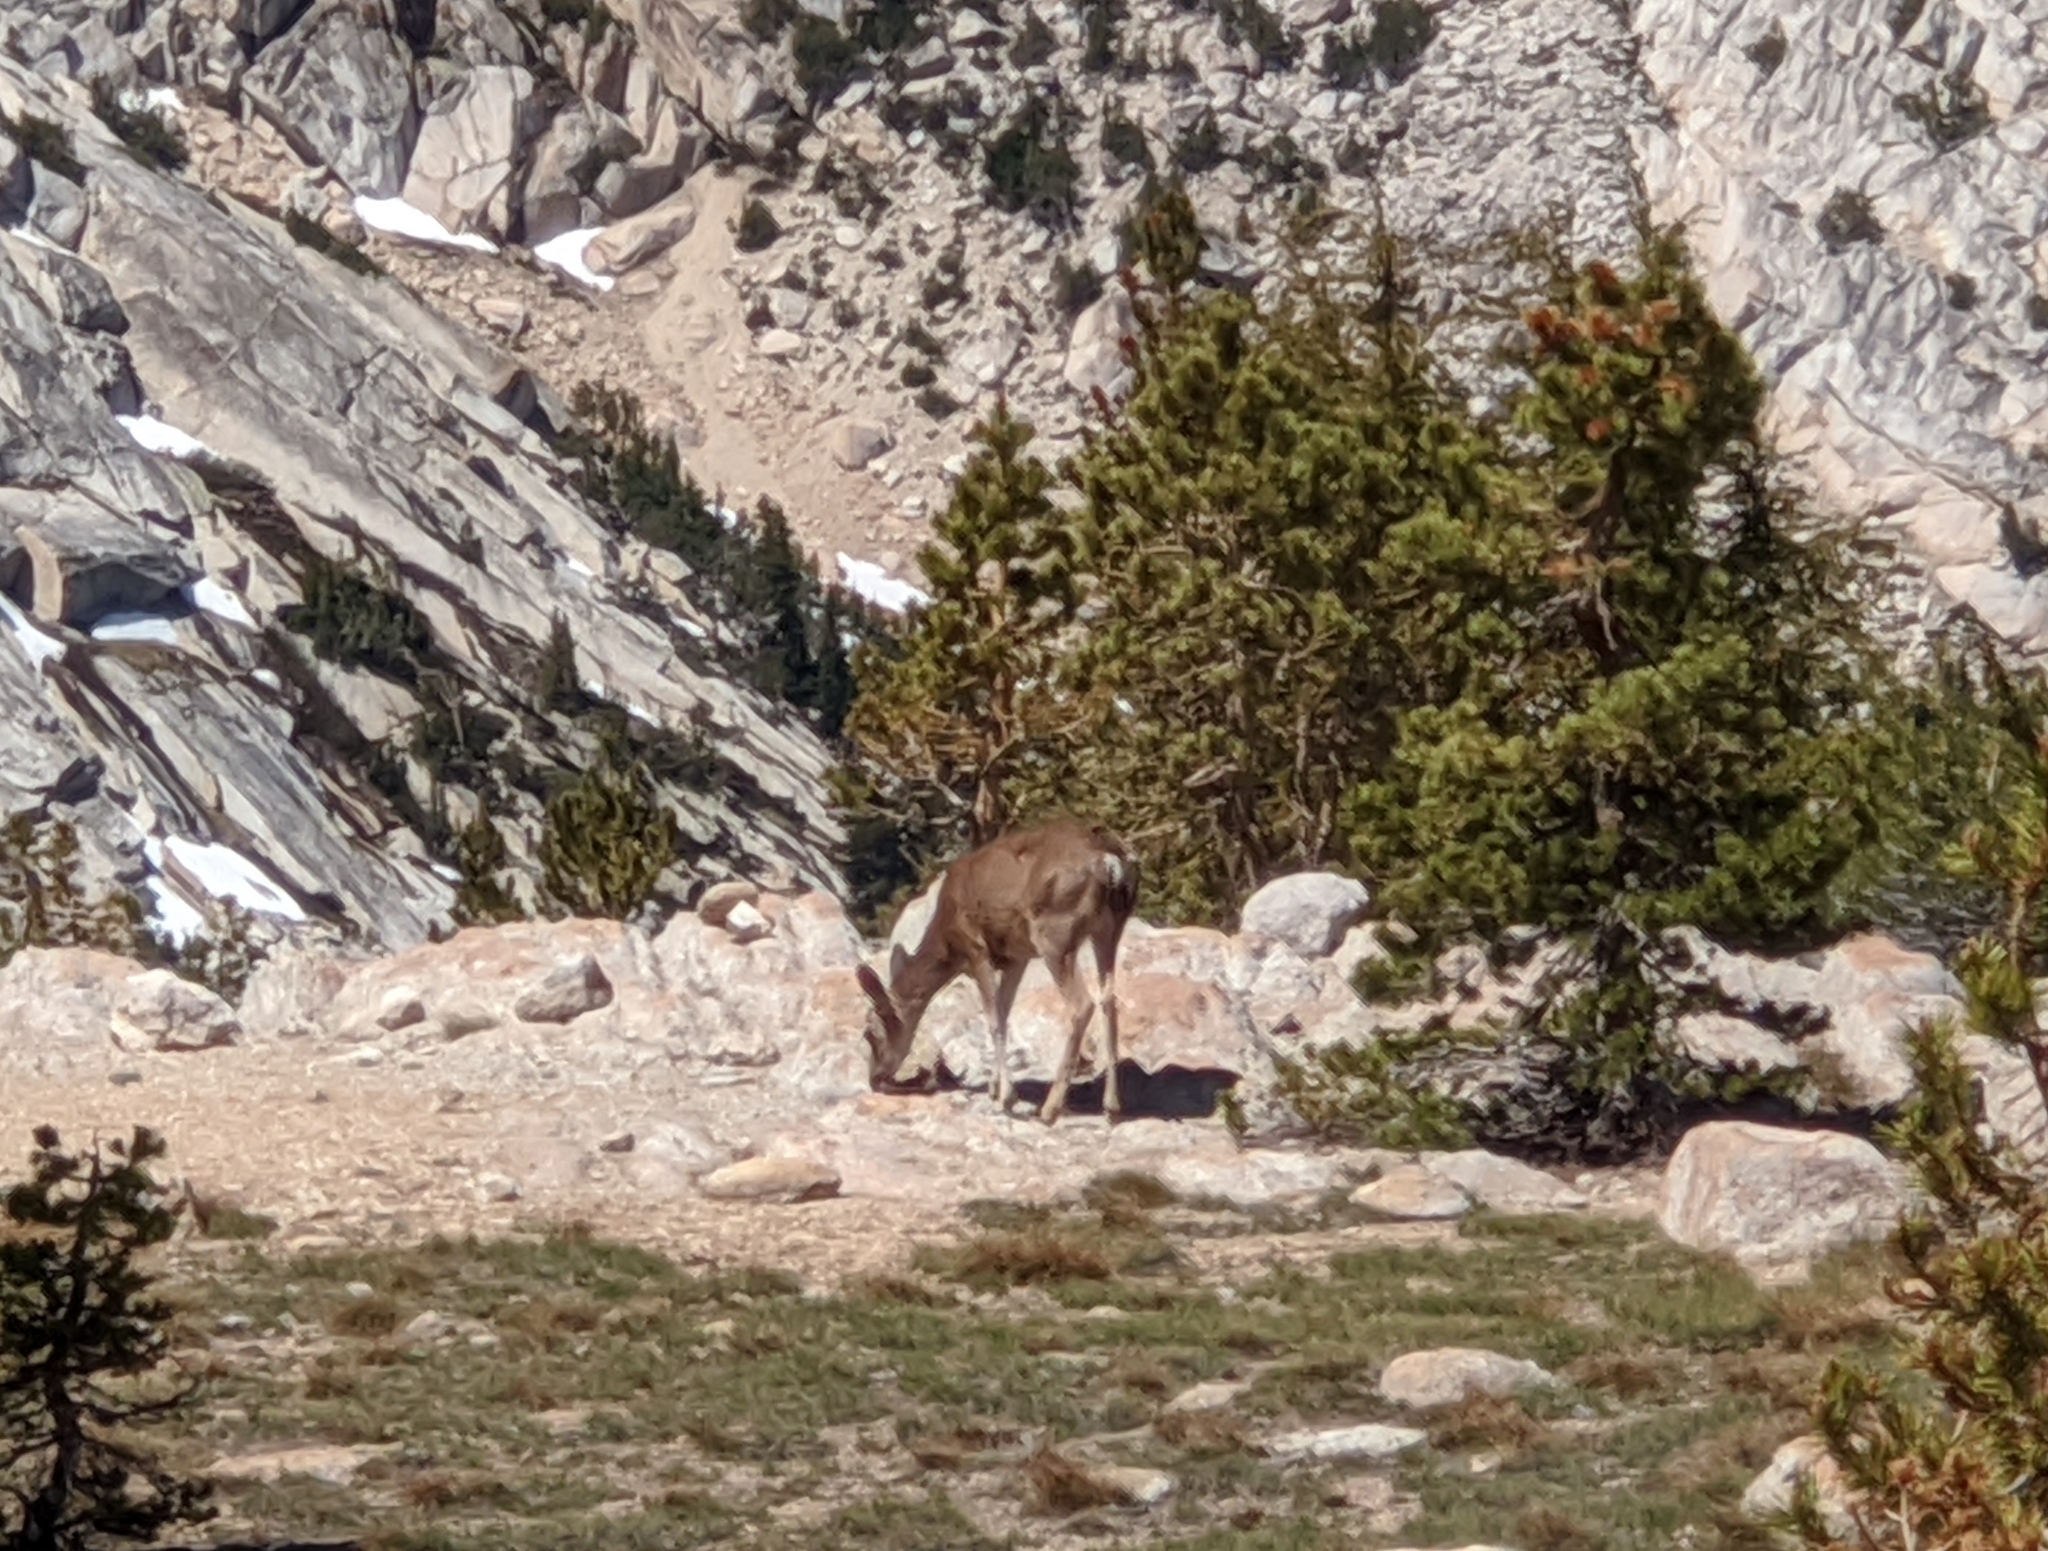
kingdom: Animalia
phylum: Chordata
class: Mammalia
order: Artiodactyla
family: Cervidae
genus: Odocoileus
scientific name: Odocoileus hemionus
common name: Mule deer
